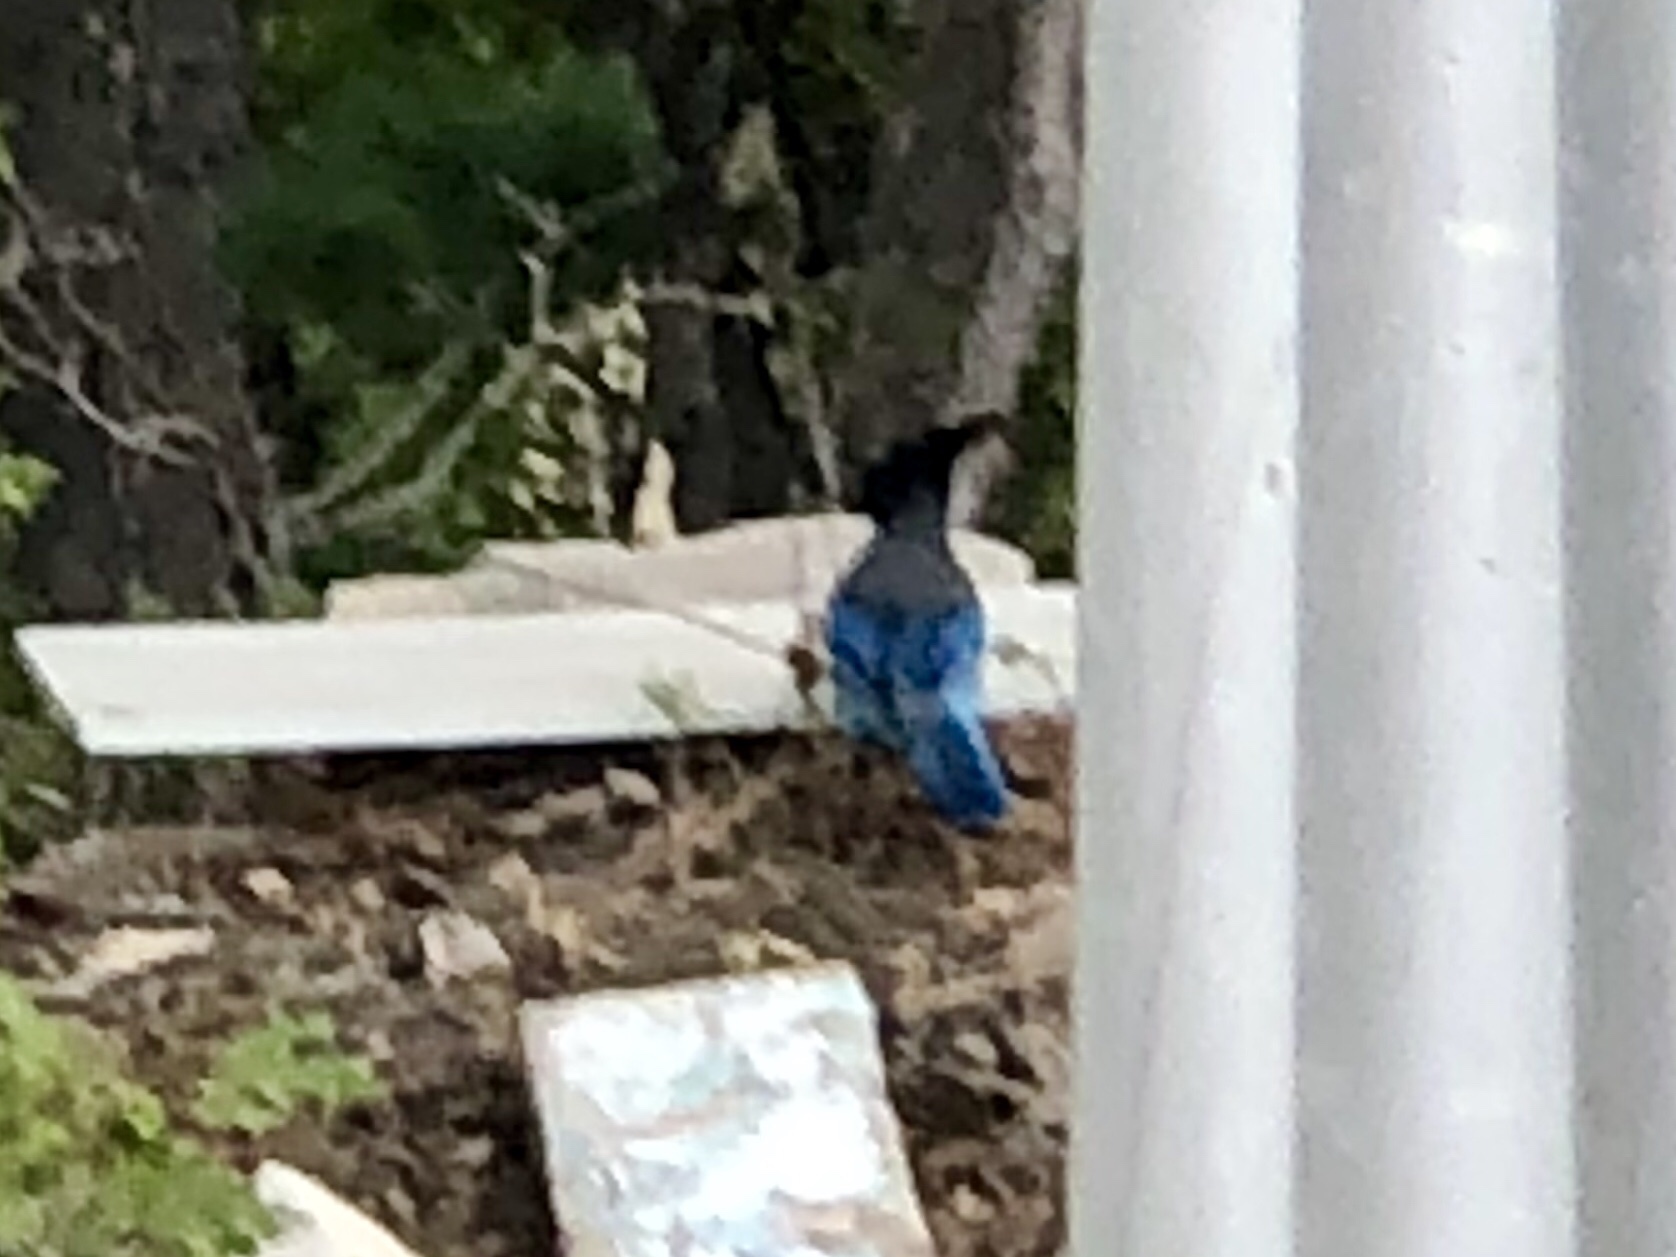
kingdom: Animalia
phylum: Chordata
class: Aves
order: Passeriformes
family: Corvidae
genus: Cyanocitta
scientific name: Cyanocitta stelleri
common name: Steller's jay
